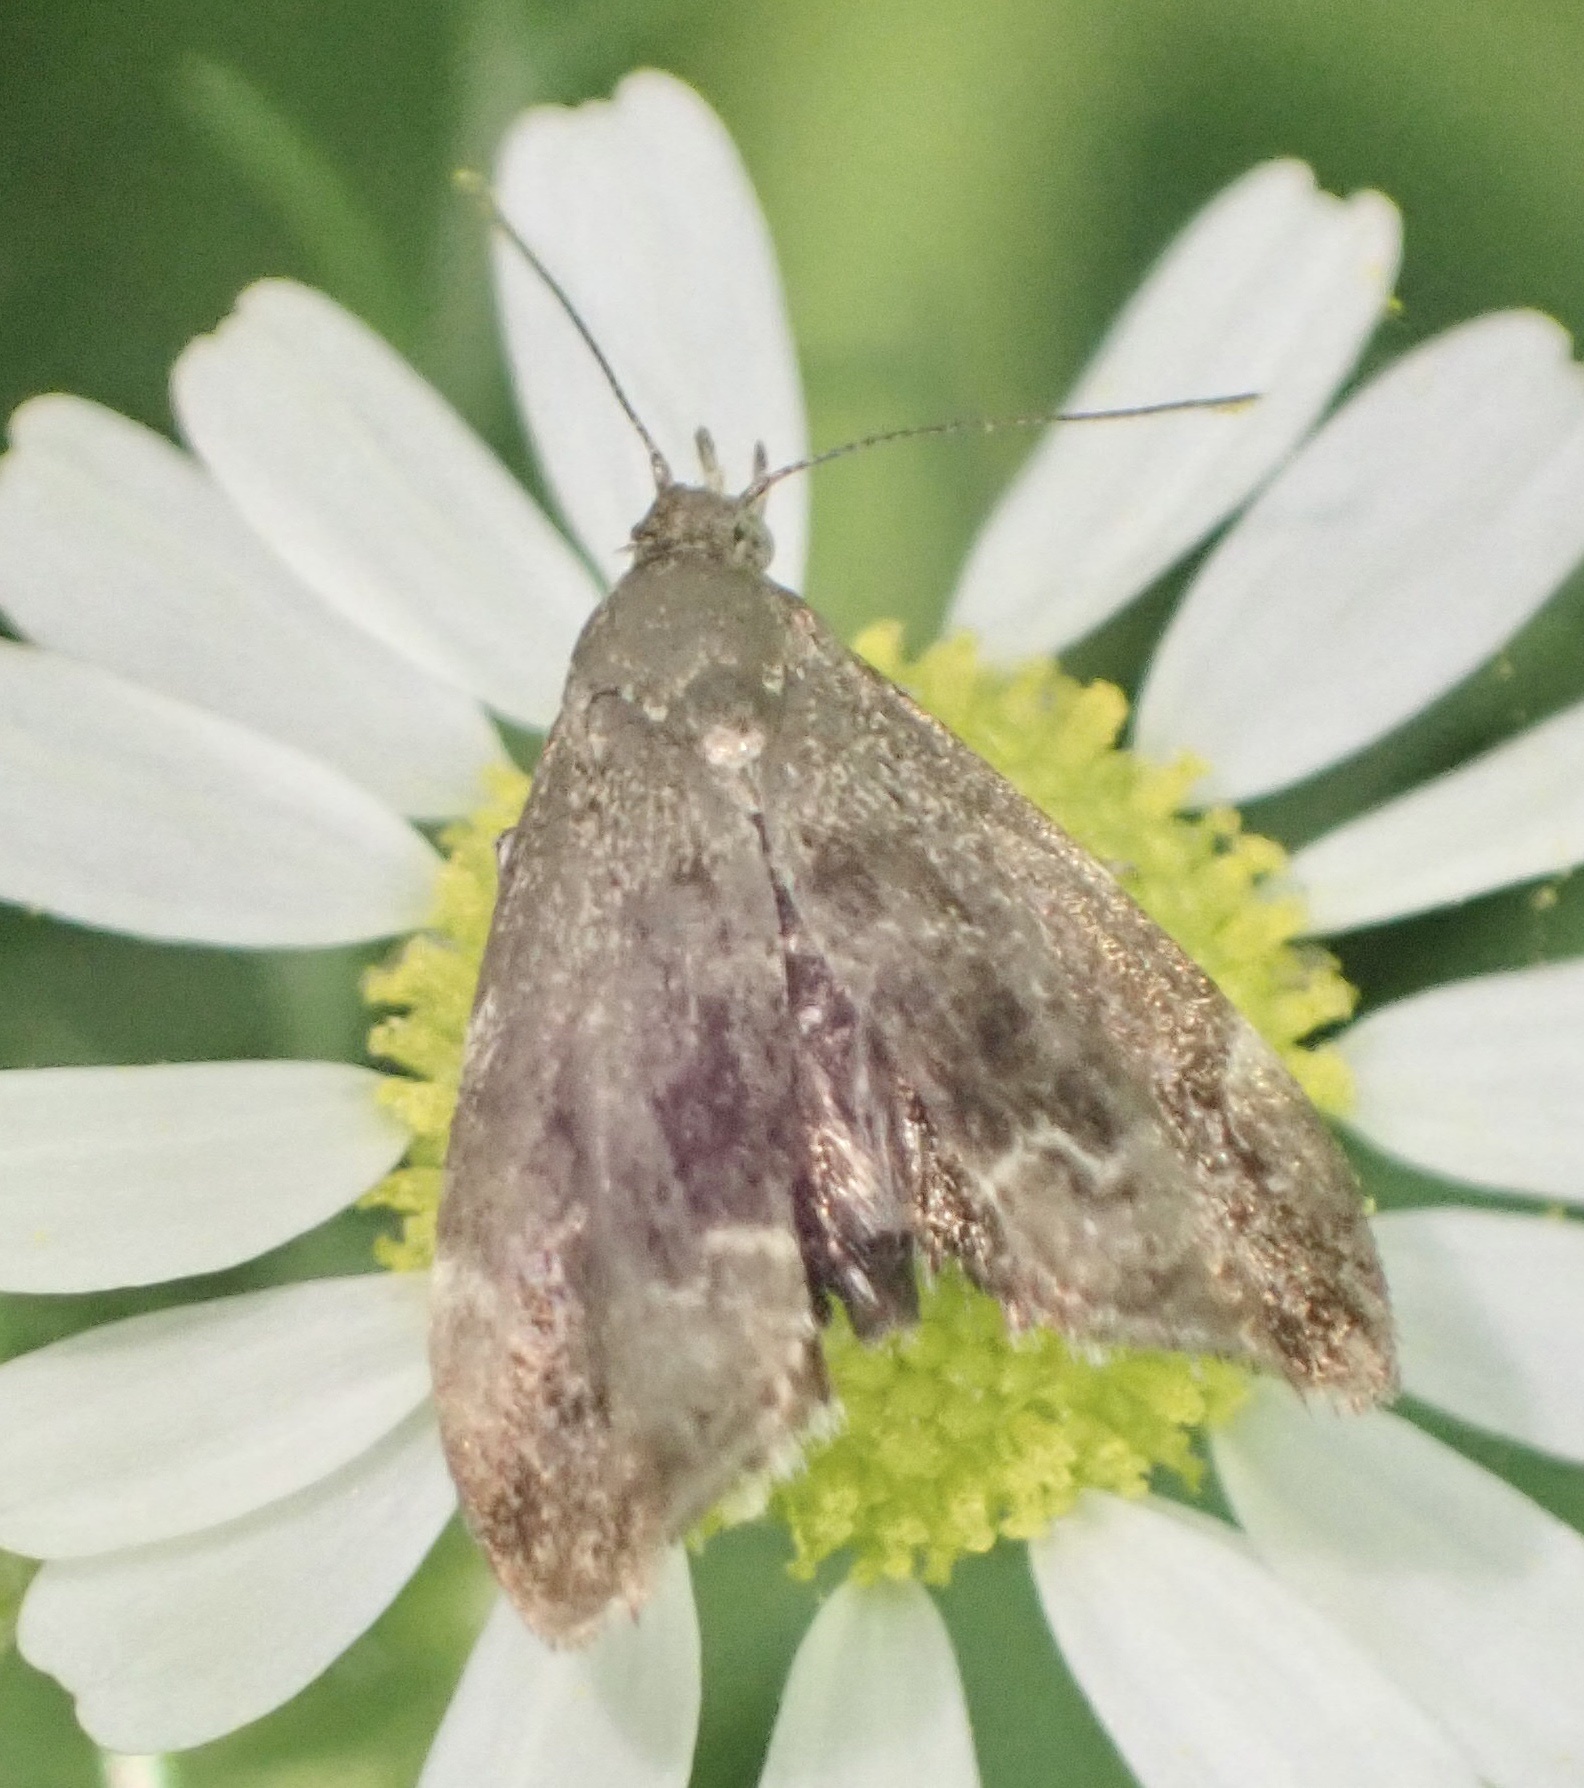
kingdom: Animalia
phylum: Arthropoda
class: Insecta
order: Lepidoptera
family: Choreutidae
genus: Anthophila
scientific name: Anthophila fabriciana
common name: Nettle-tap
